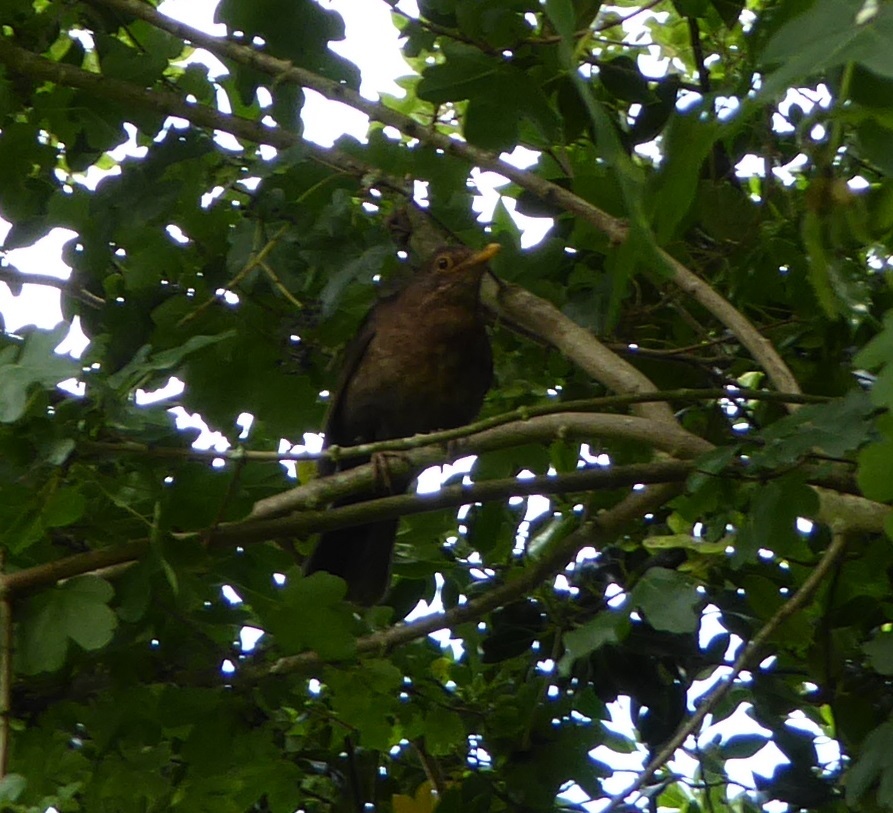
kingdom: Animalia
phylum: Chordata
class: Aves
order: Passeriformes
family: Turdidae
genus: Turdus
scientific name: Turdus merula
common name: Common blackbird
